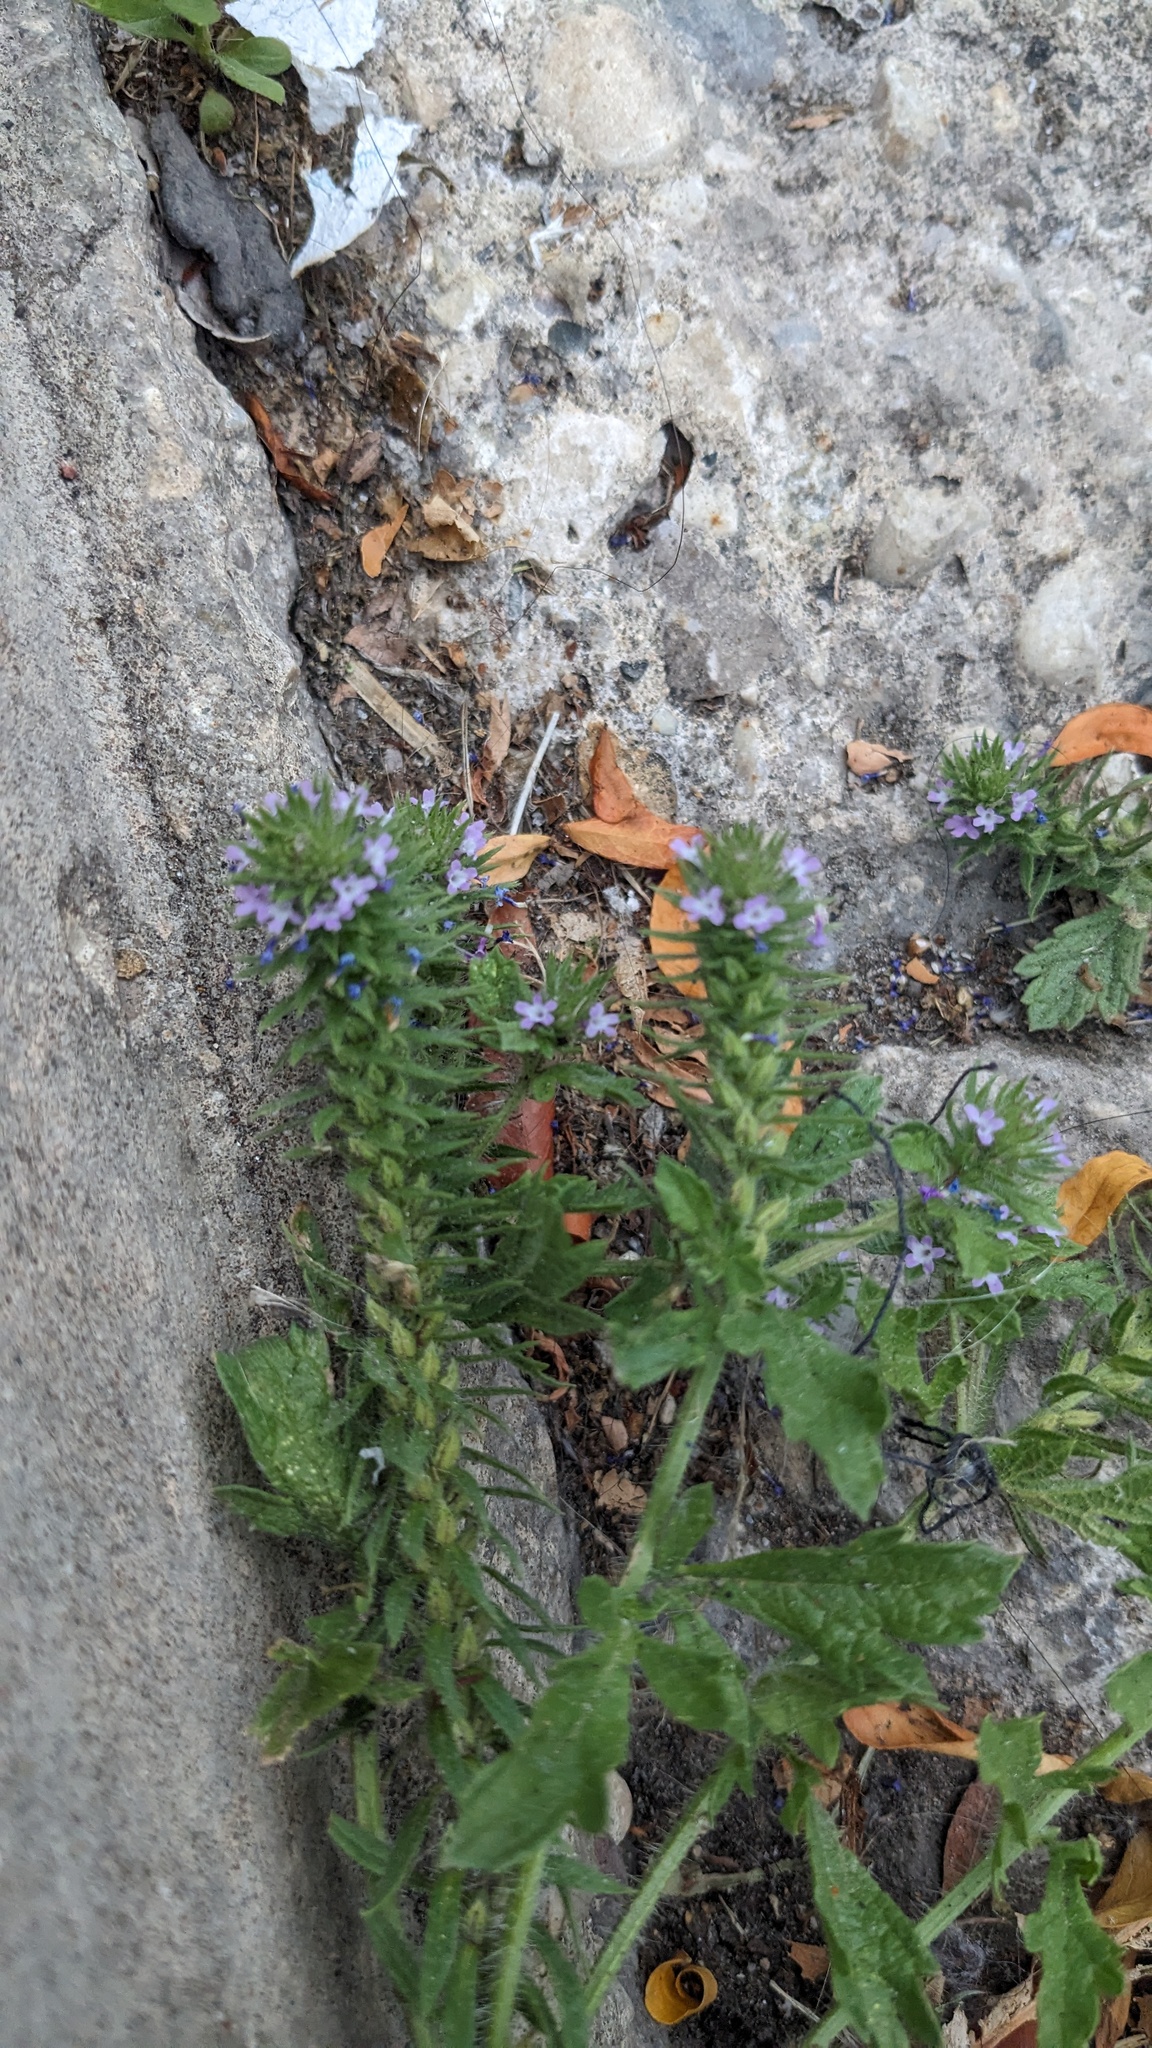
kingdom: Plantae
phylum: Tracheophyta
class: Magnoliopsida
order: Lamiales
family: Verbenaceae
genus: Verbena
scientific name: Verbena bracteata
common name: Bracted vervain
